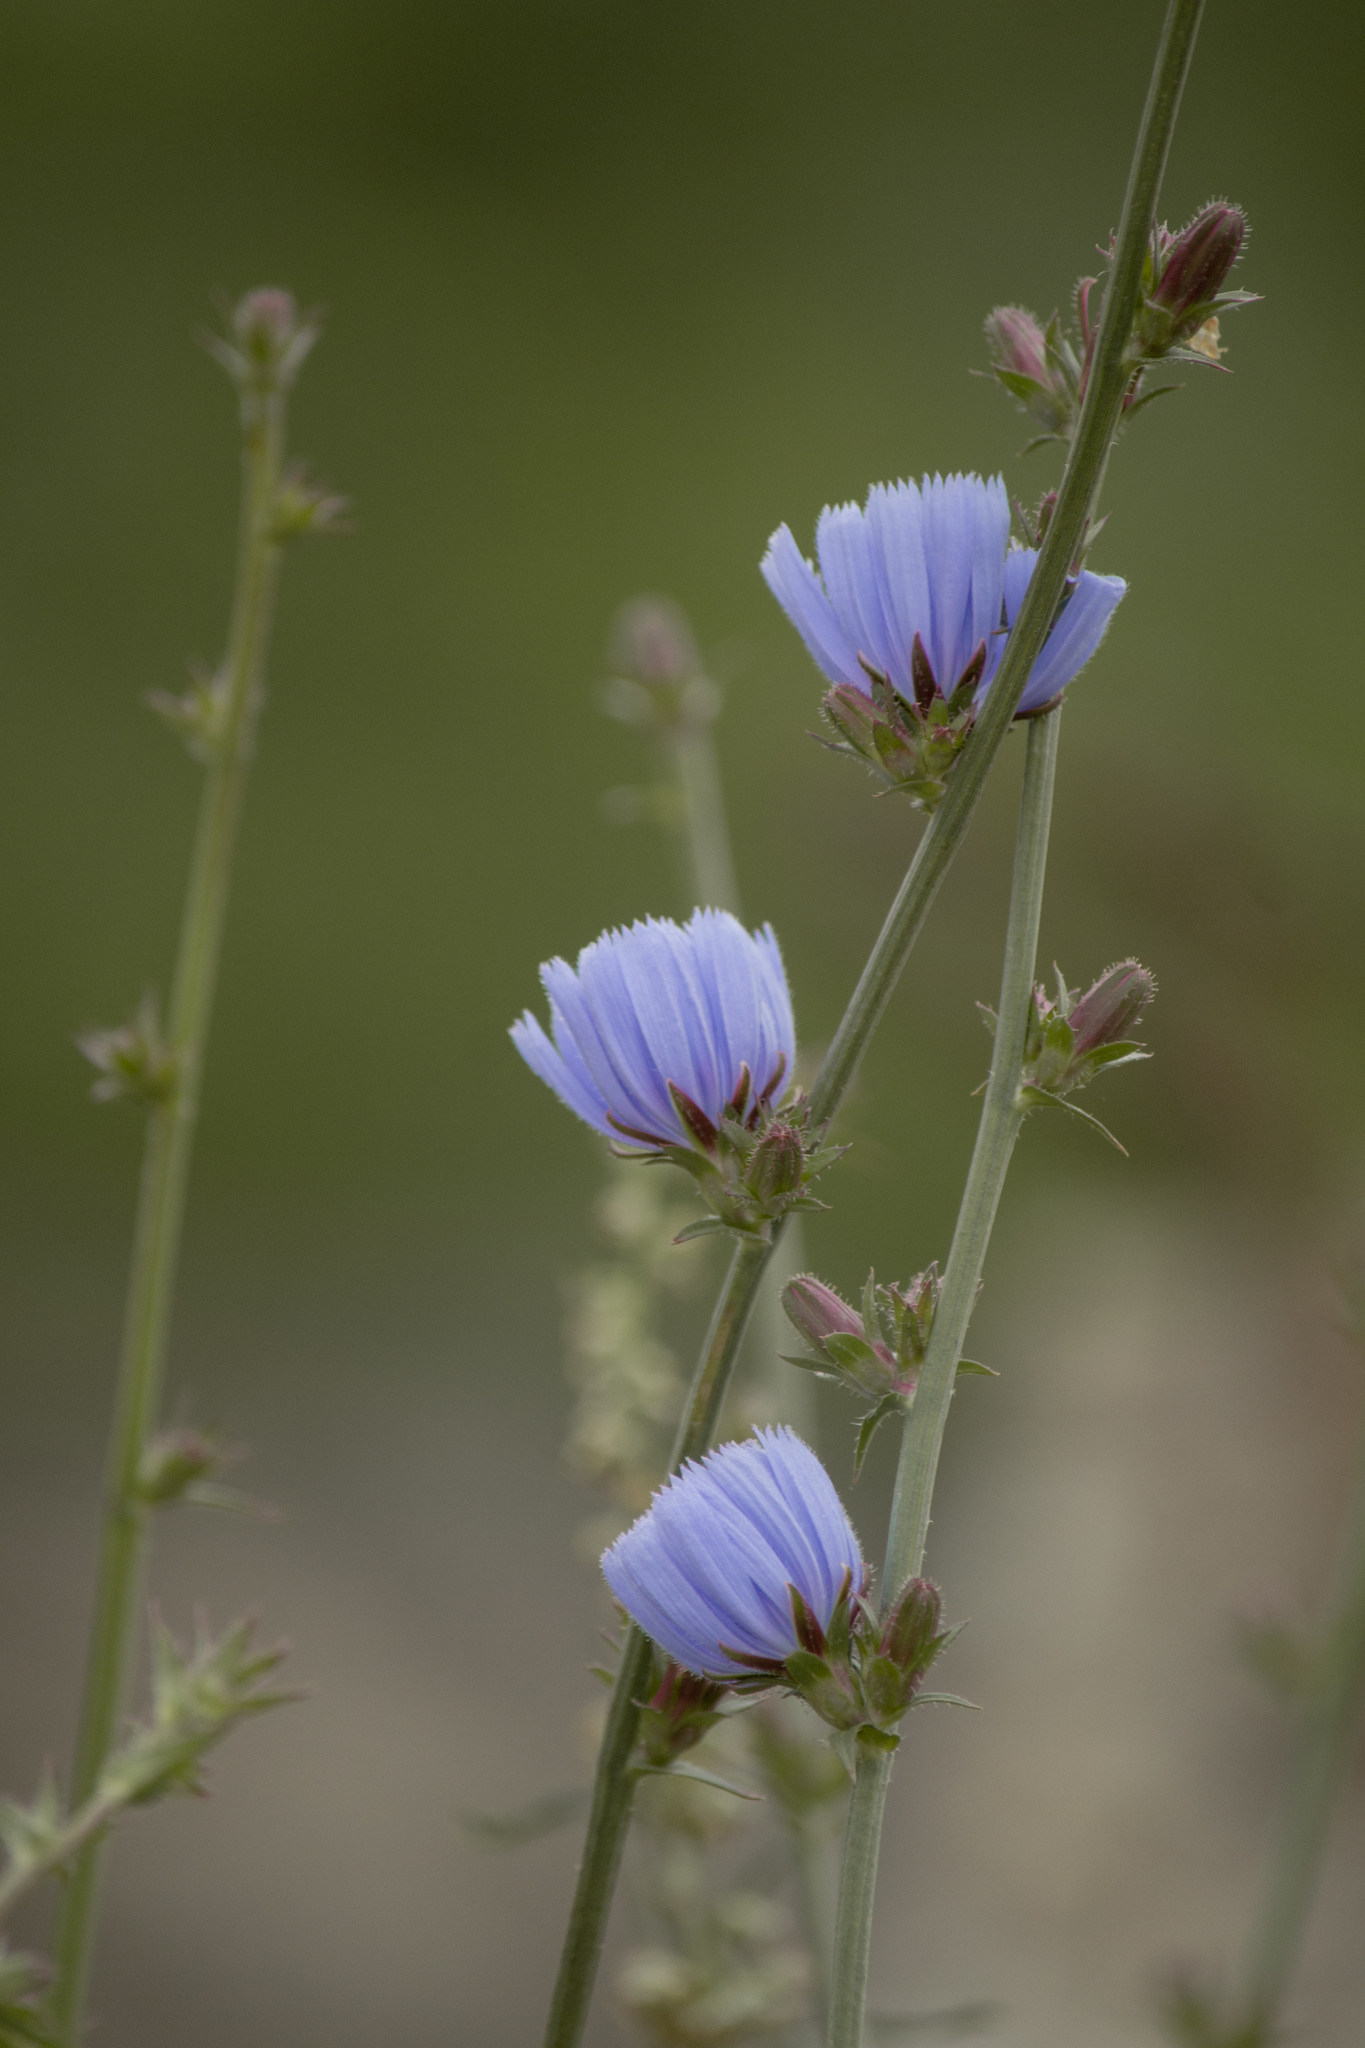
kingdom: Plantae
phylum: Tracheophyta
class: Magnoliopsida
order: Asterales
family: Asteraceae
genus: Cichorium
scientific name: Cichorium intybus
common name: Chicory
